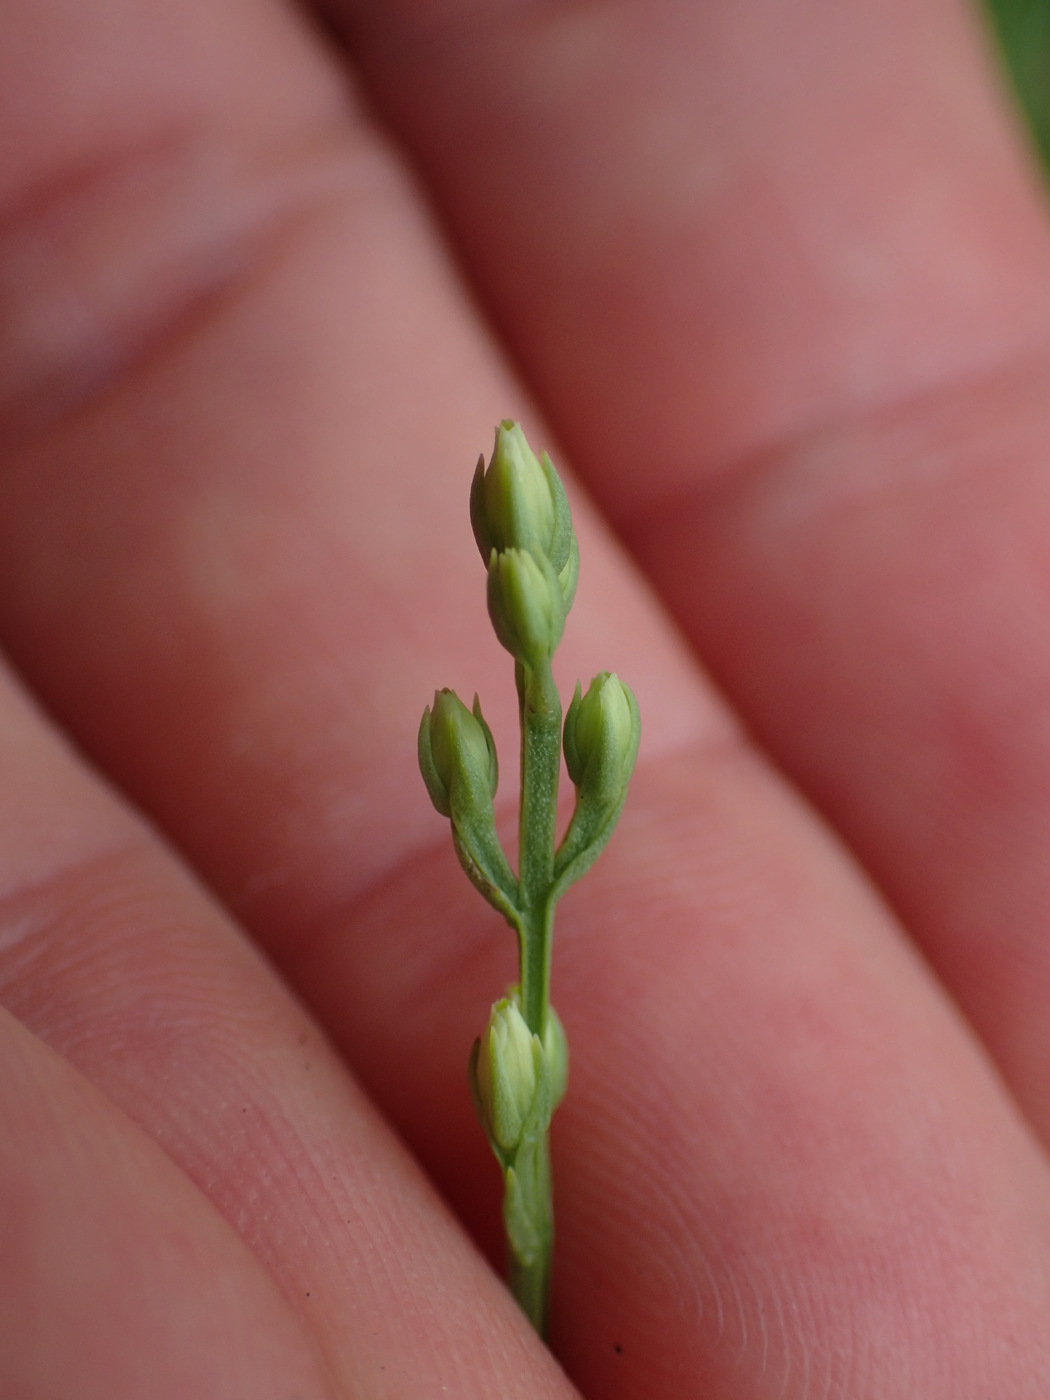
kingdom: Plantae
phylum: Tracheophyta
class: Magnoliopsida
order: Gentianales
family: Gentianaceae
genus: Bartonia
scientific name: Bartonia virginica
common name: Yellow bartonia
